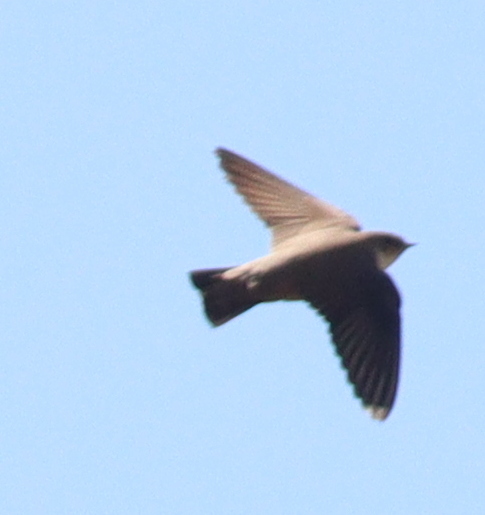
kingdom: Animalia
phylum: Chordata
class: Aves
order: Passeriformes
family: Hirundinidae
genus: Ptyonoprogne
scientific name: Ptyonoprogne rupestris
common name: Eurasian crag martin
